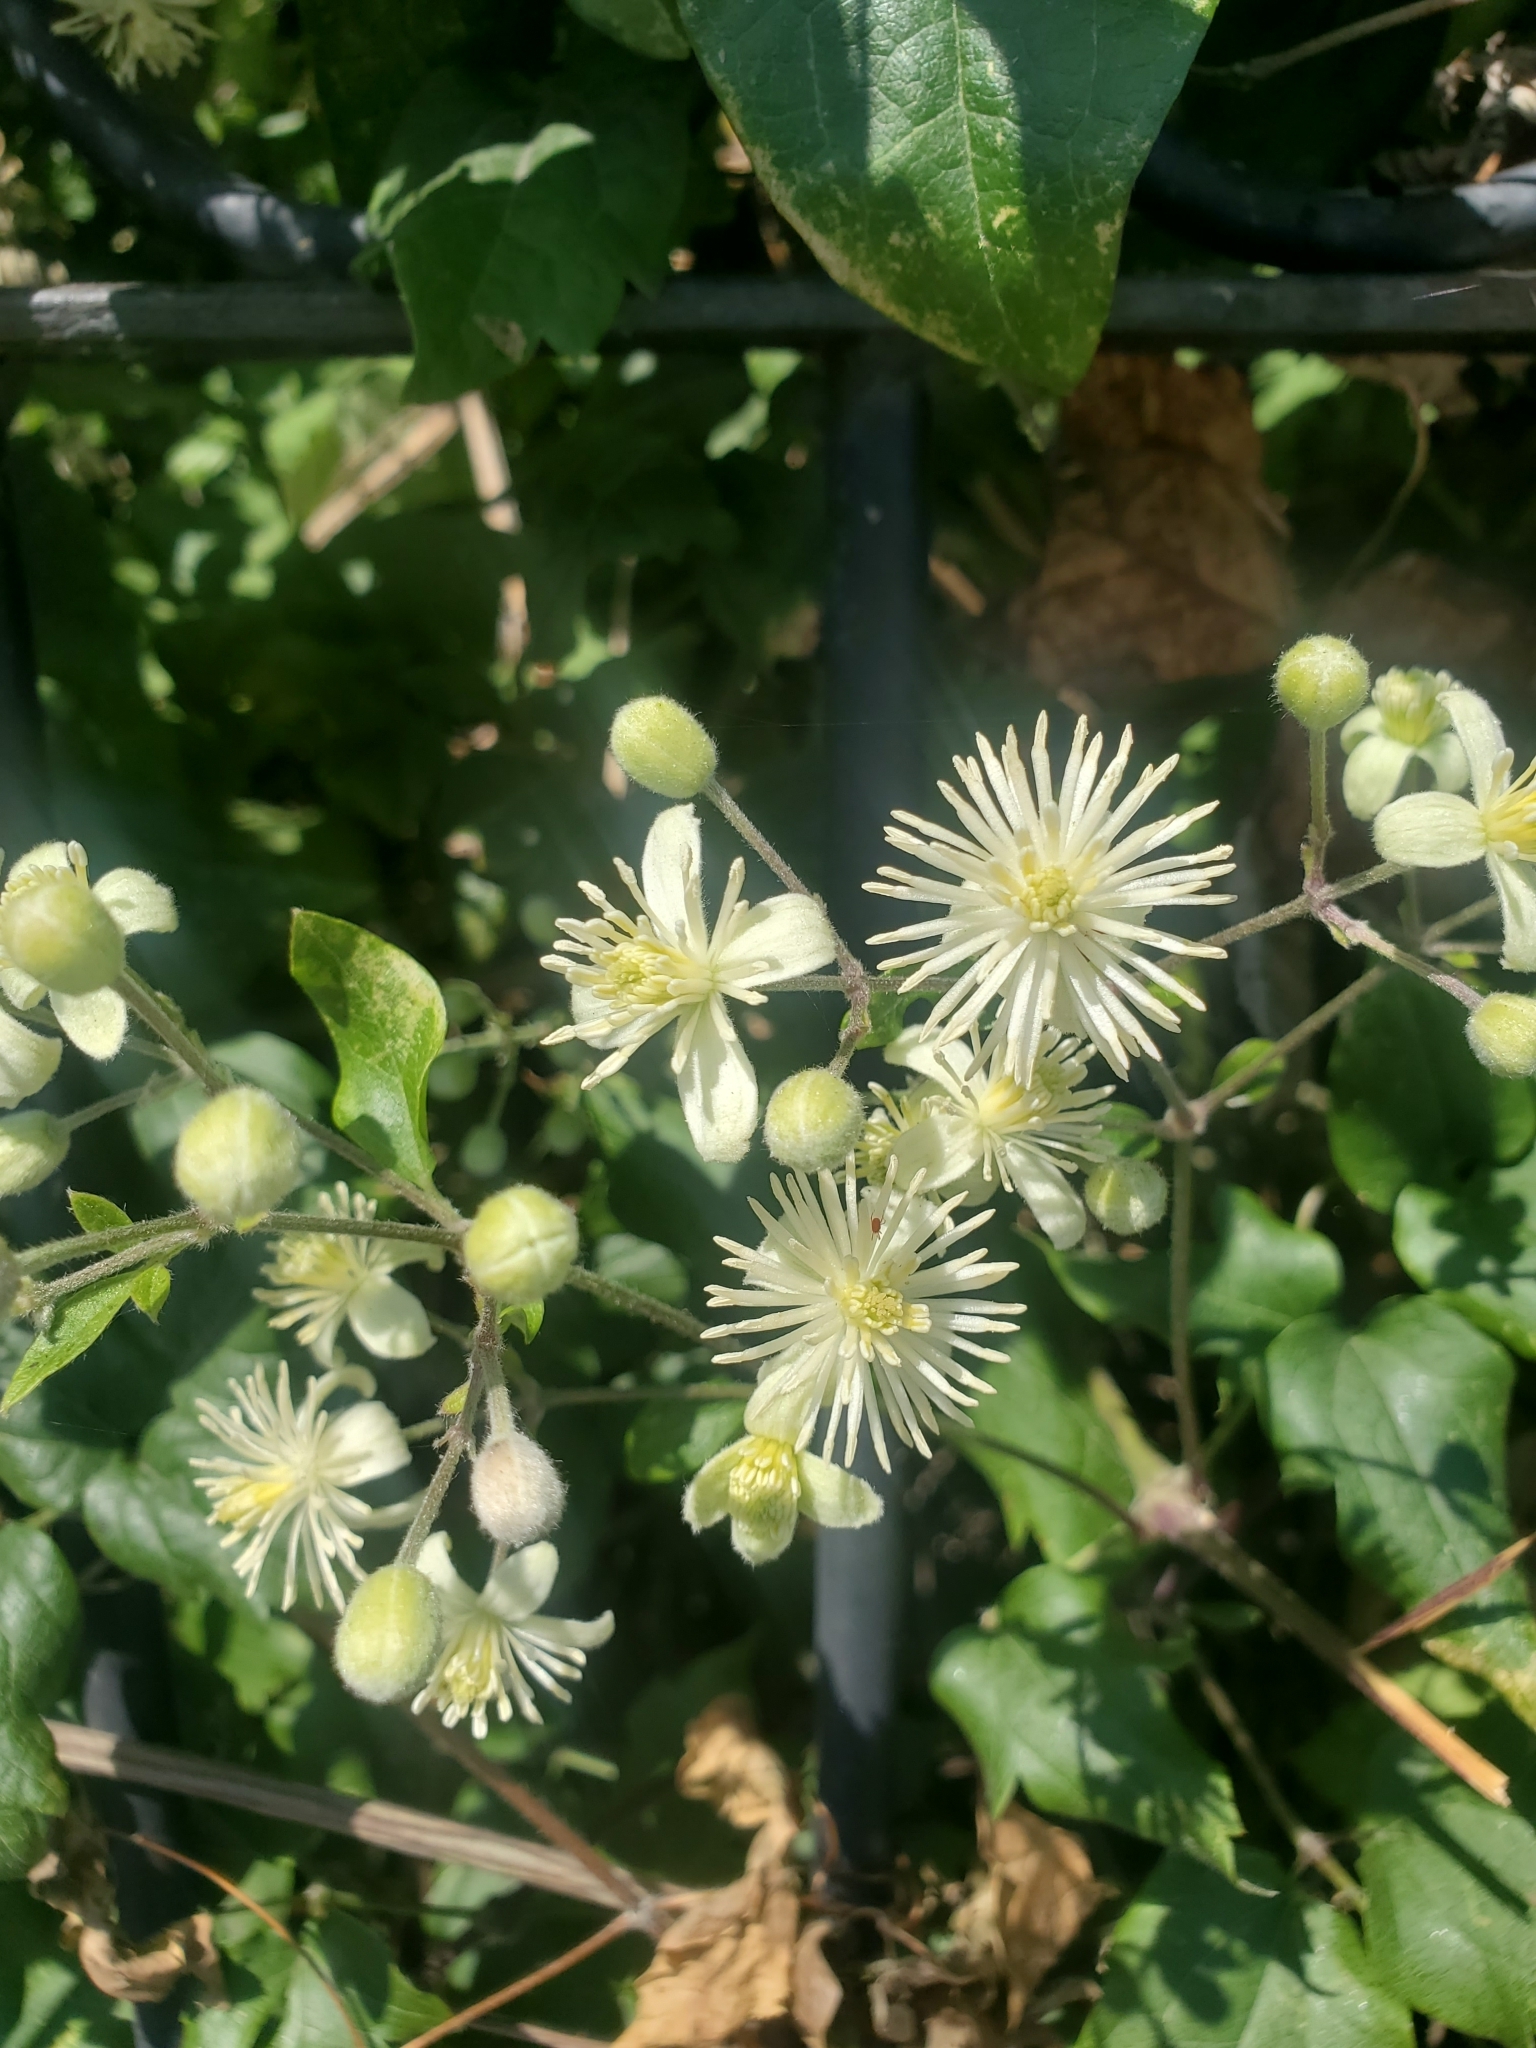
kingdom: Plantae
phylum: Tracheophyta
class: Magnoliopsida
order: Ranunculales
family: Ranunculaceae
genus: Clematis
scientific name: Clematis vitalba
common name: Evergreen clematis
